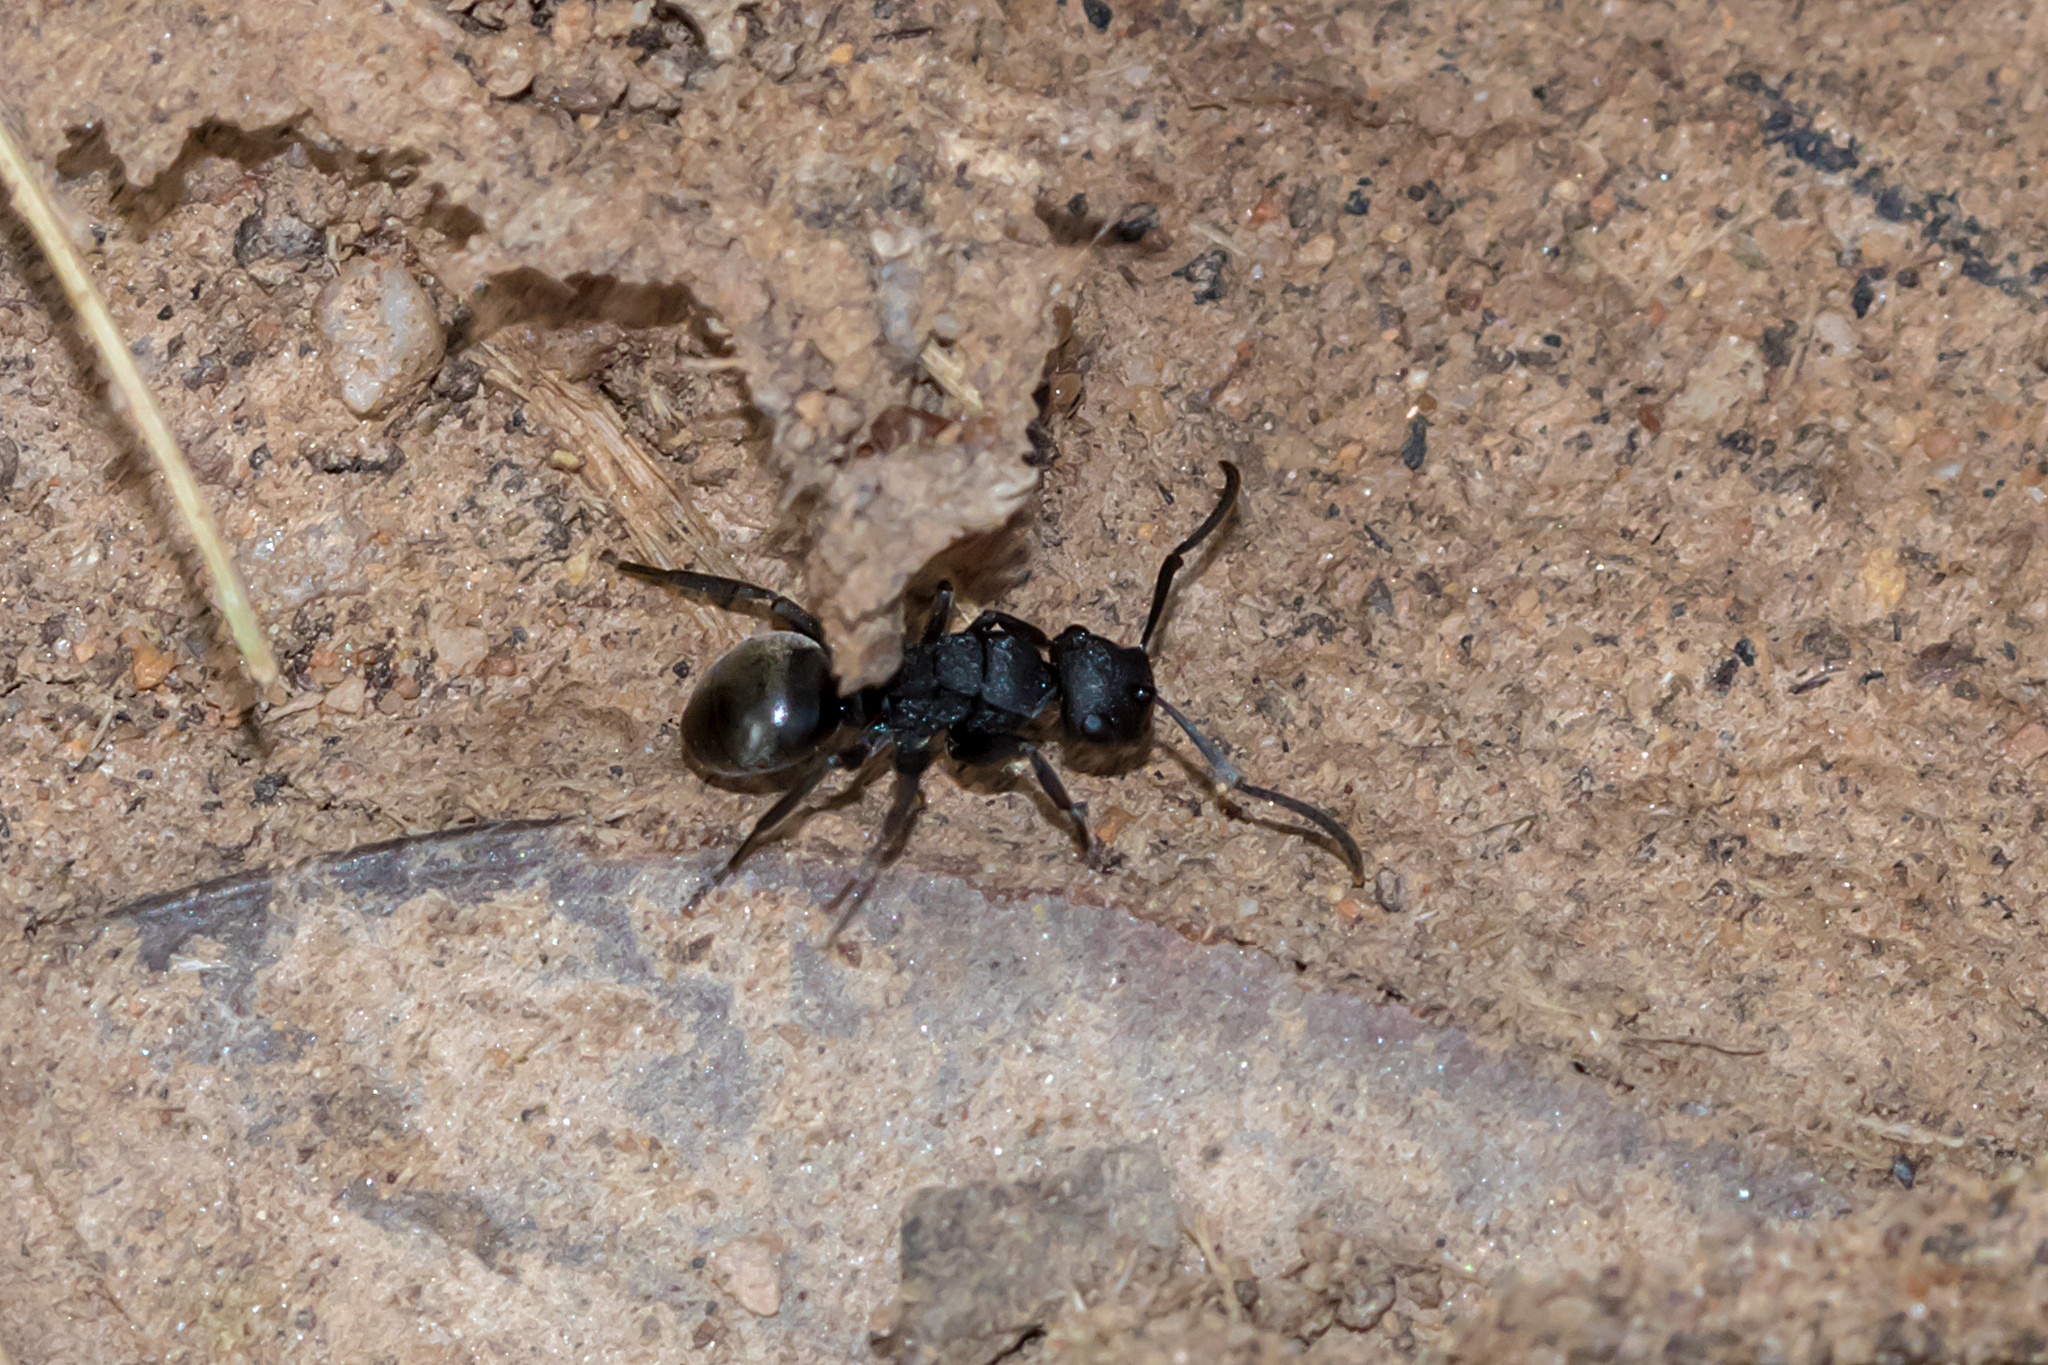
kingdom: Animalia
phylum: Arthropoda
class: Insecta
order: Hymenoptera
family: Formicidae
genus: Polyrhachis
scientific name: Polyrhachis phryne
